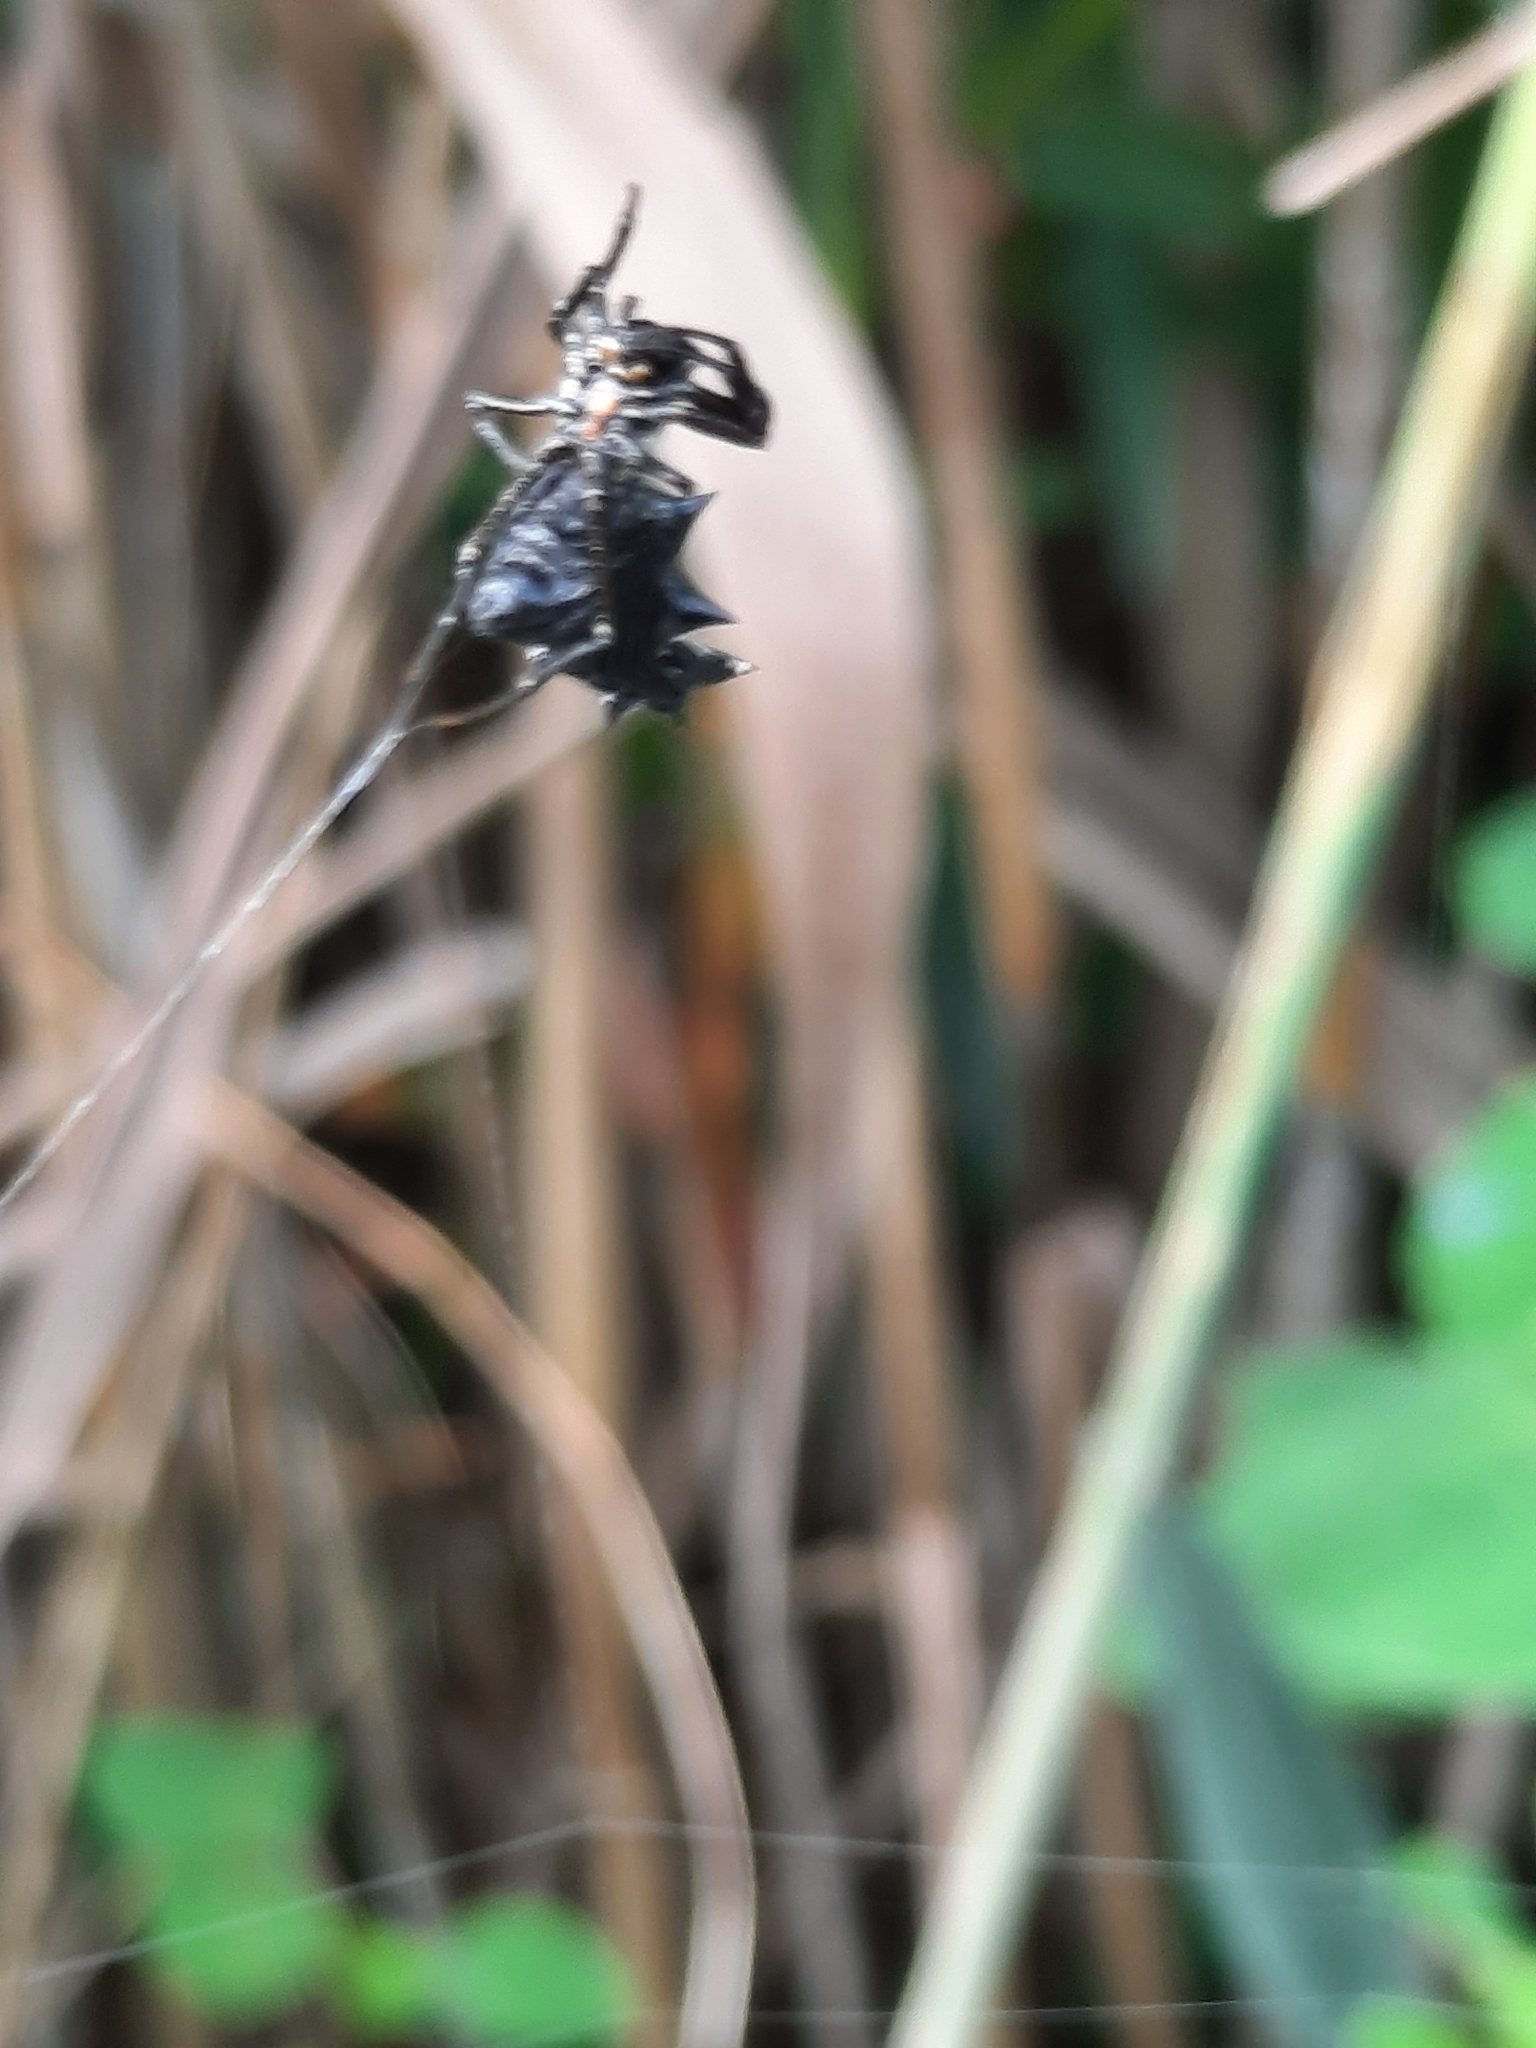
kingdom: Animalia
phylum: Arthropoda
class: Arachnida
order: Araneae
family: Araneidae
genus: Micrathena
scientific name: Micrathena gracilis
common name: Orb weavers
